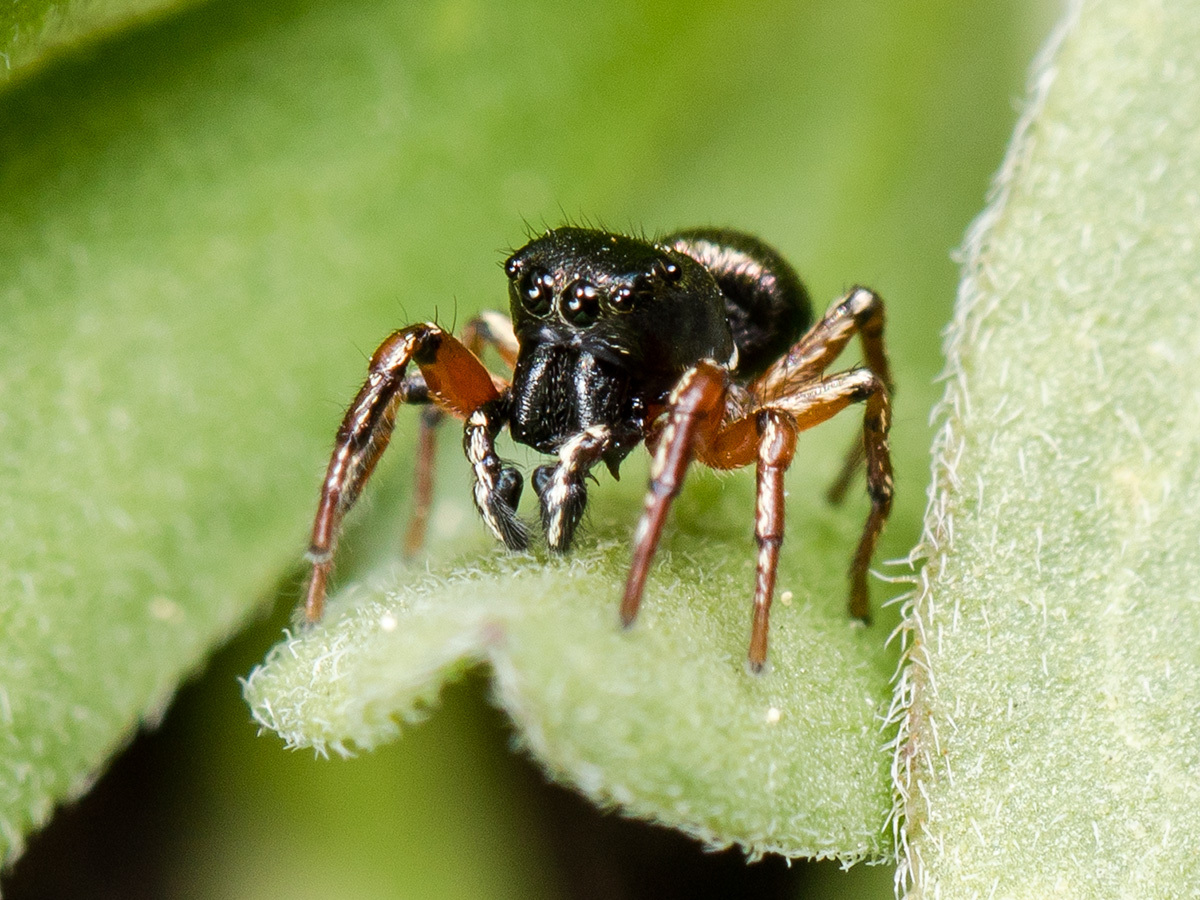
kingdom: Animalia
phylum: Arthropoda
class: Arachnida
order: Araneae
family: Salticidae
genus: Heliophanus
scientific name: Heliophanus wesolowskae
